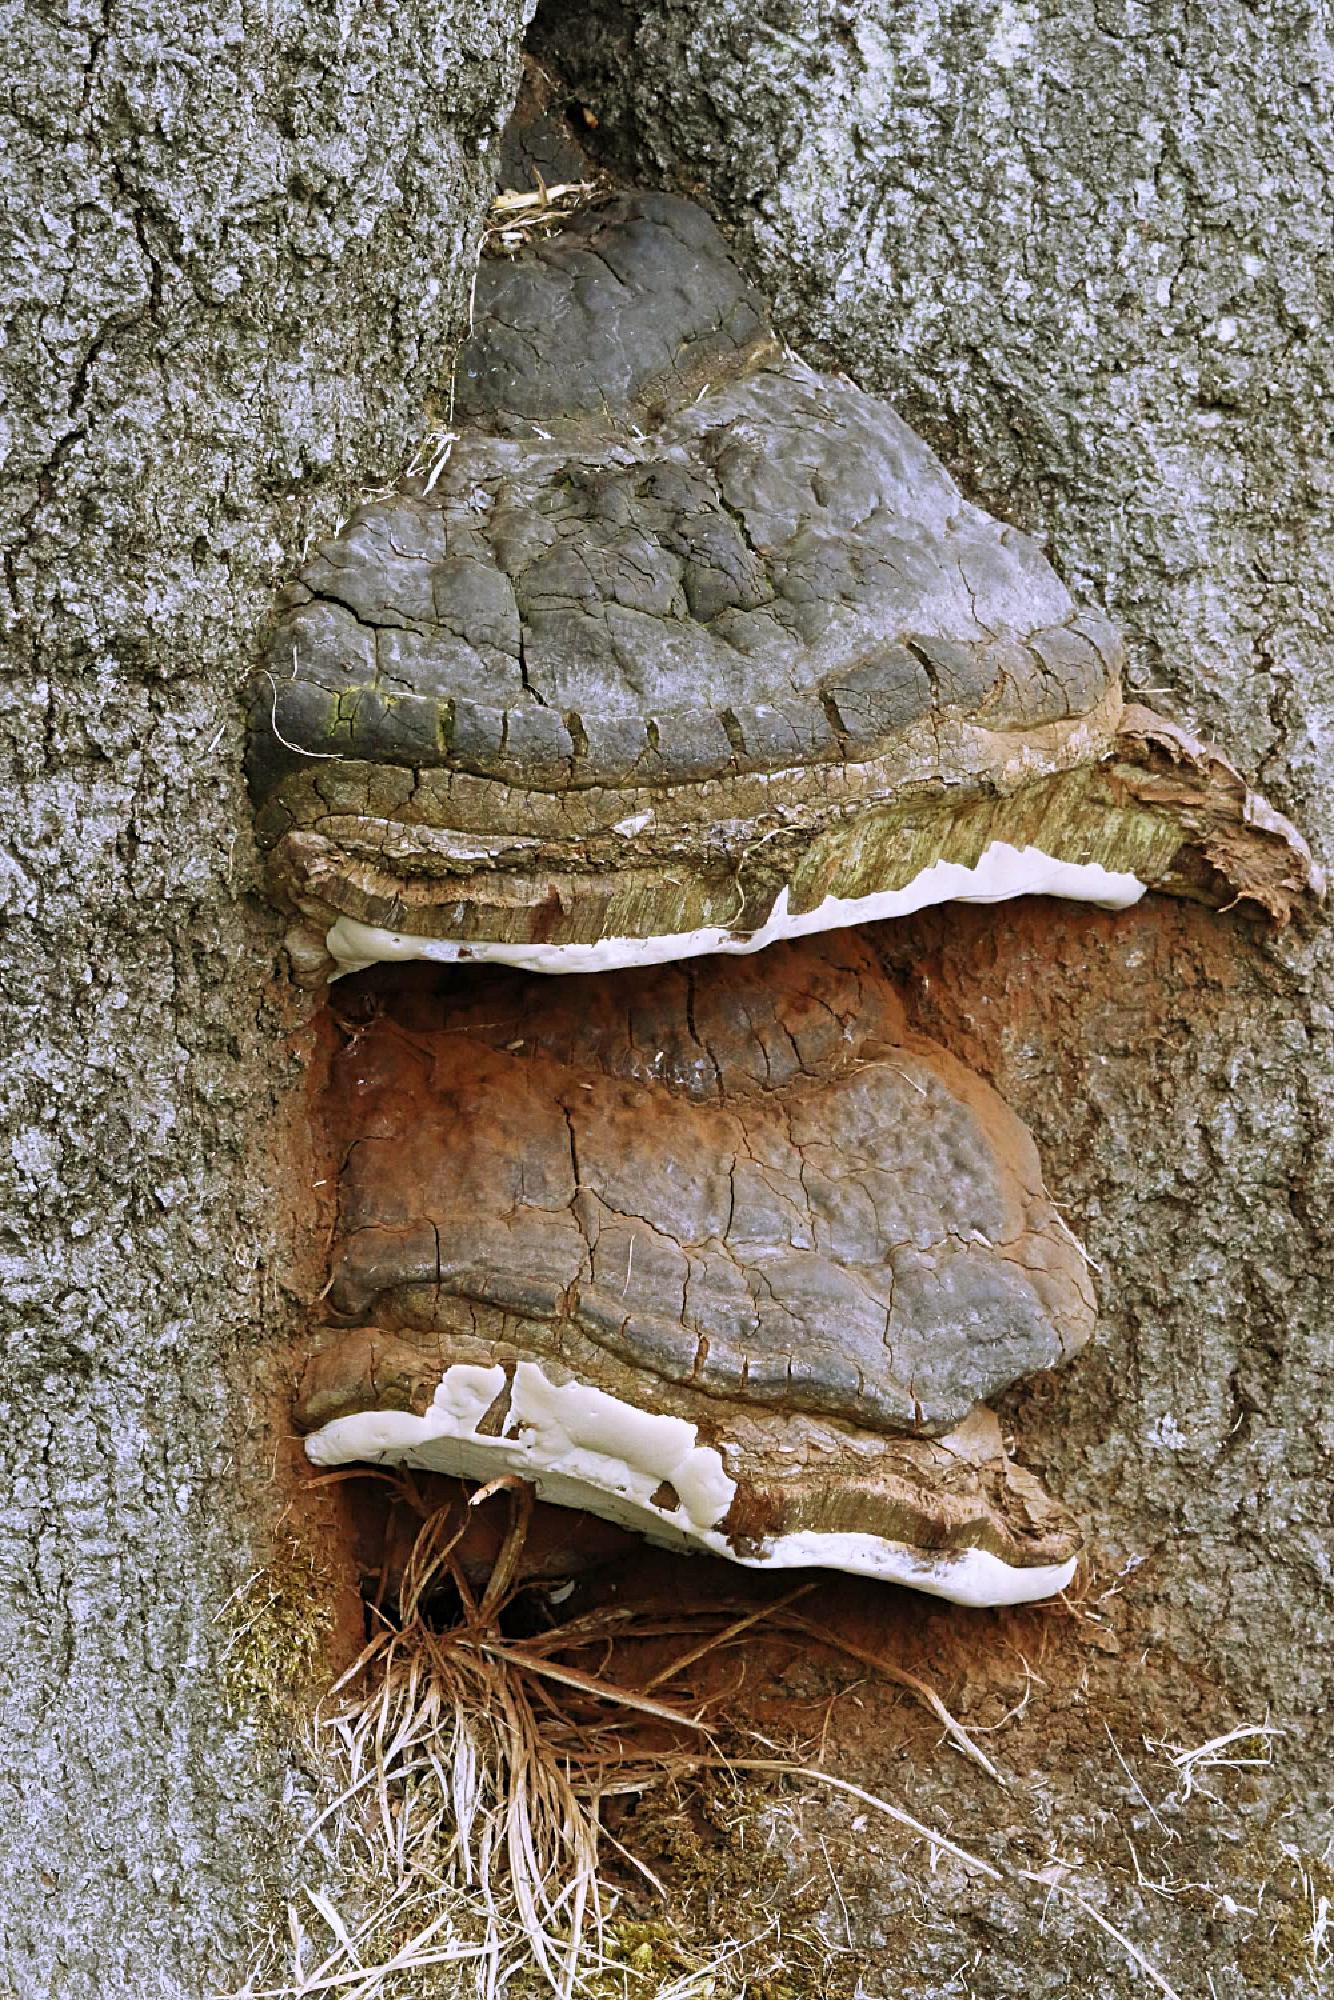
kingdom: Fungi
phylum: Basidiomycota
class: Agaricomycetes
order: Polyporales
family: Polyporaceae
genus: Ganoderma
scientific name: Ganoderma applanatum
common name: Artist's bracket
